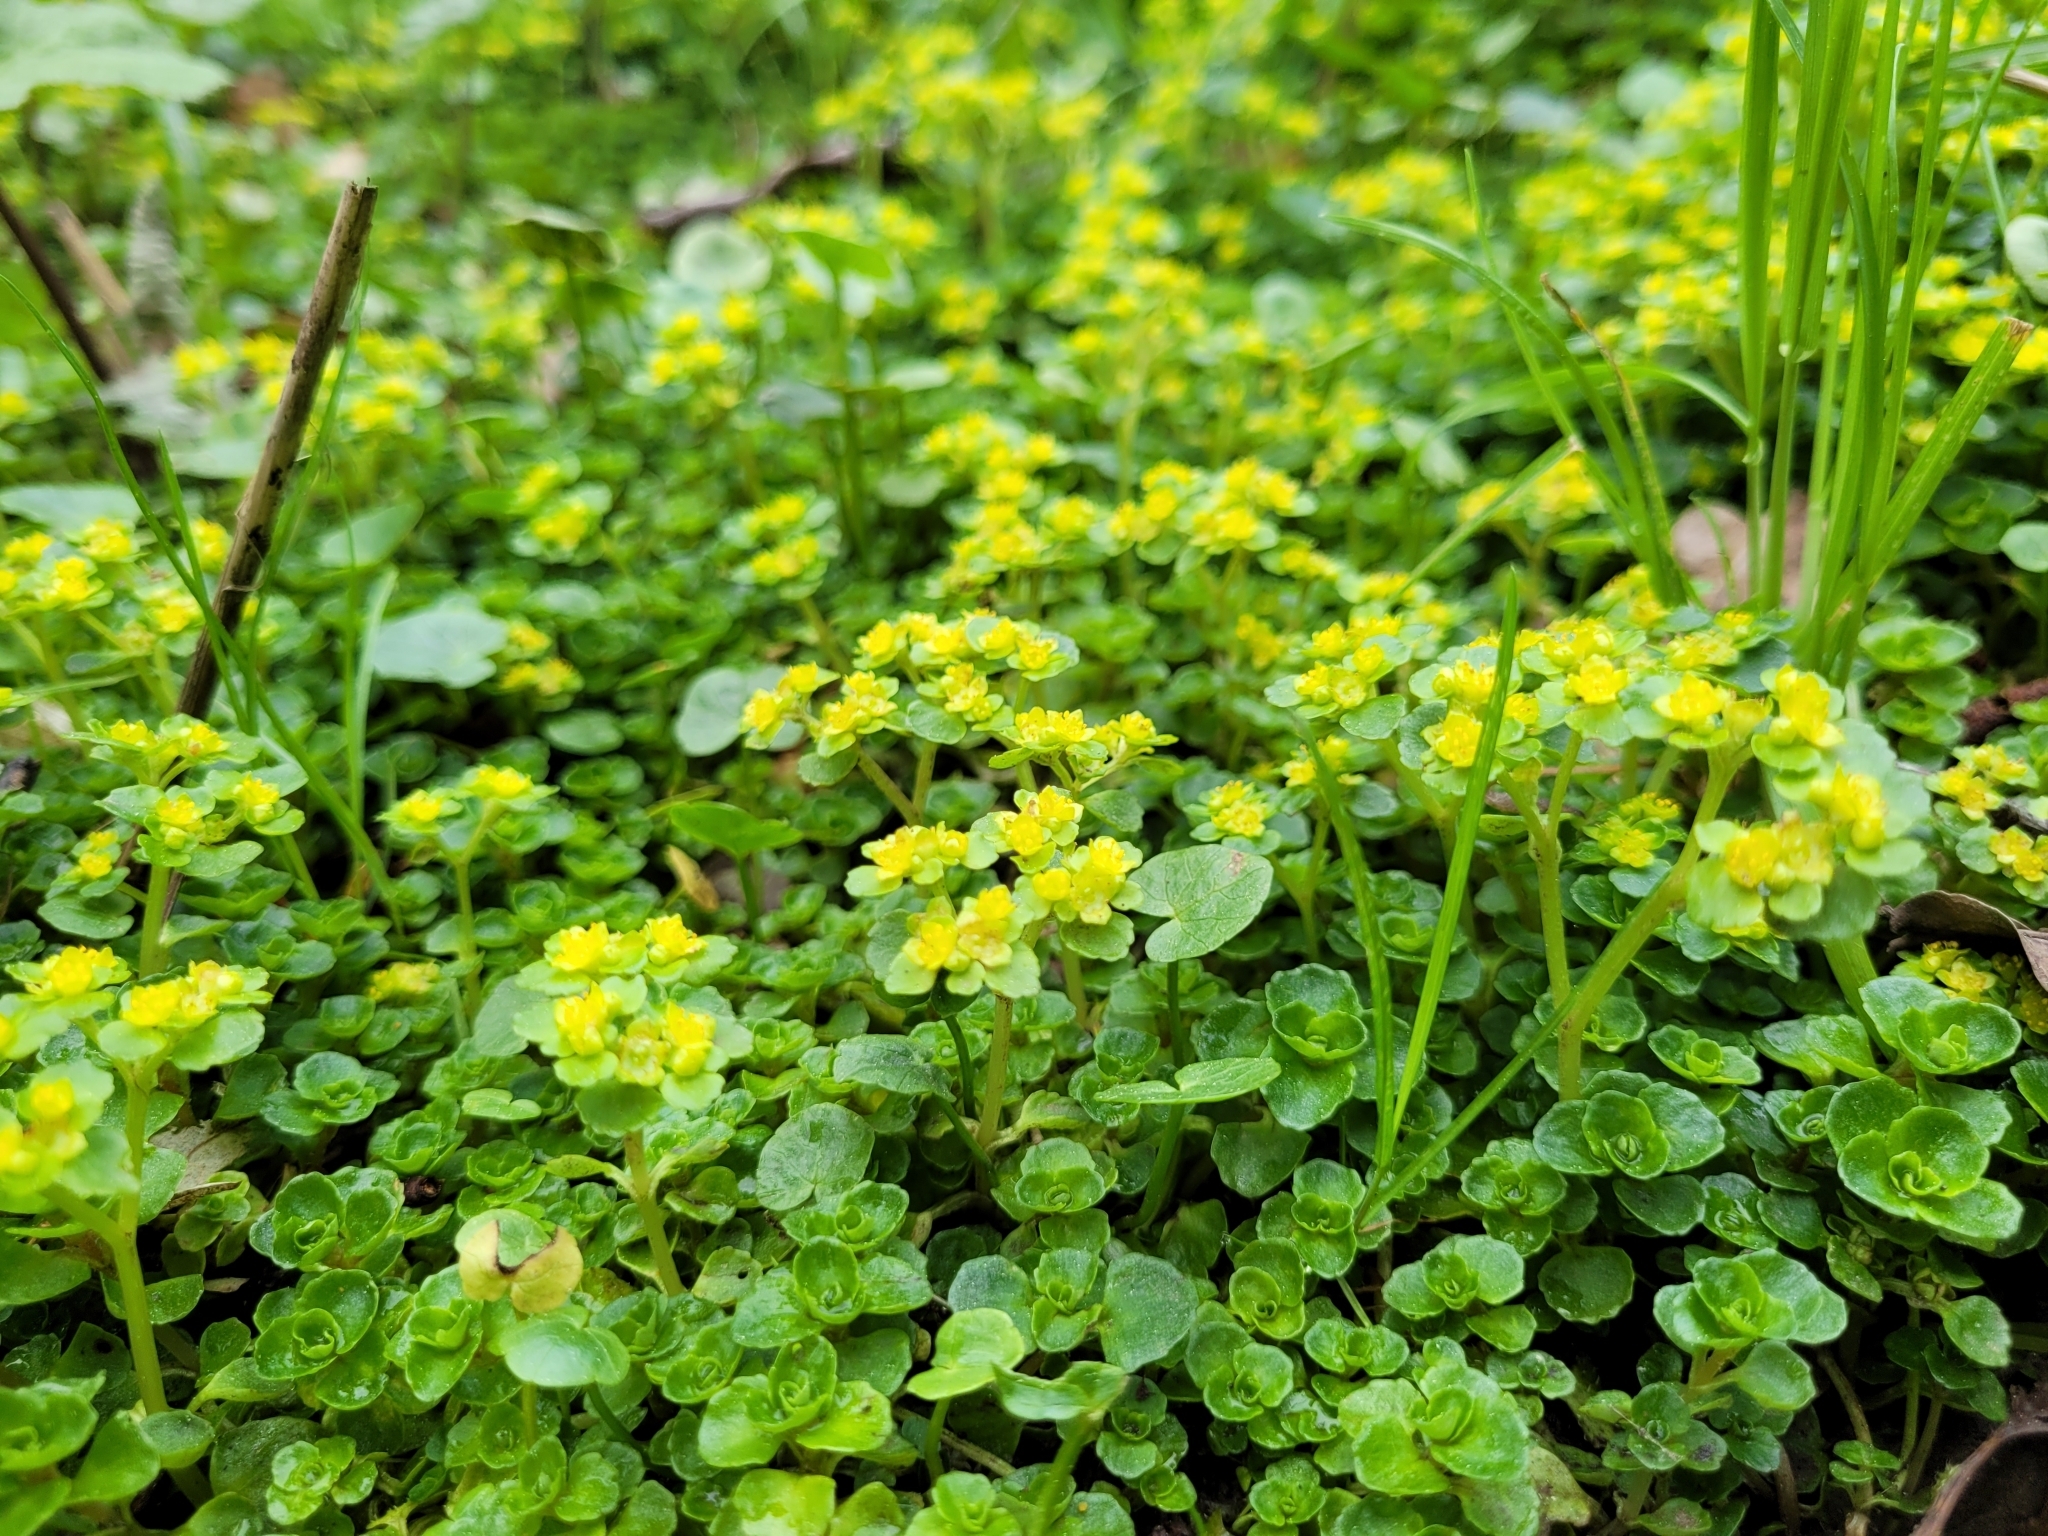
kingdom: Plantae
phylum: Tracheophyta
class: Magnoliopsida
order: Saxifragales
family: Saxifragaceae
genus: Chrysosplenium
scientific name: Chrysosplenium oppositifolium
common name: Opposite-leaved golden-saxifrage
